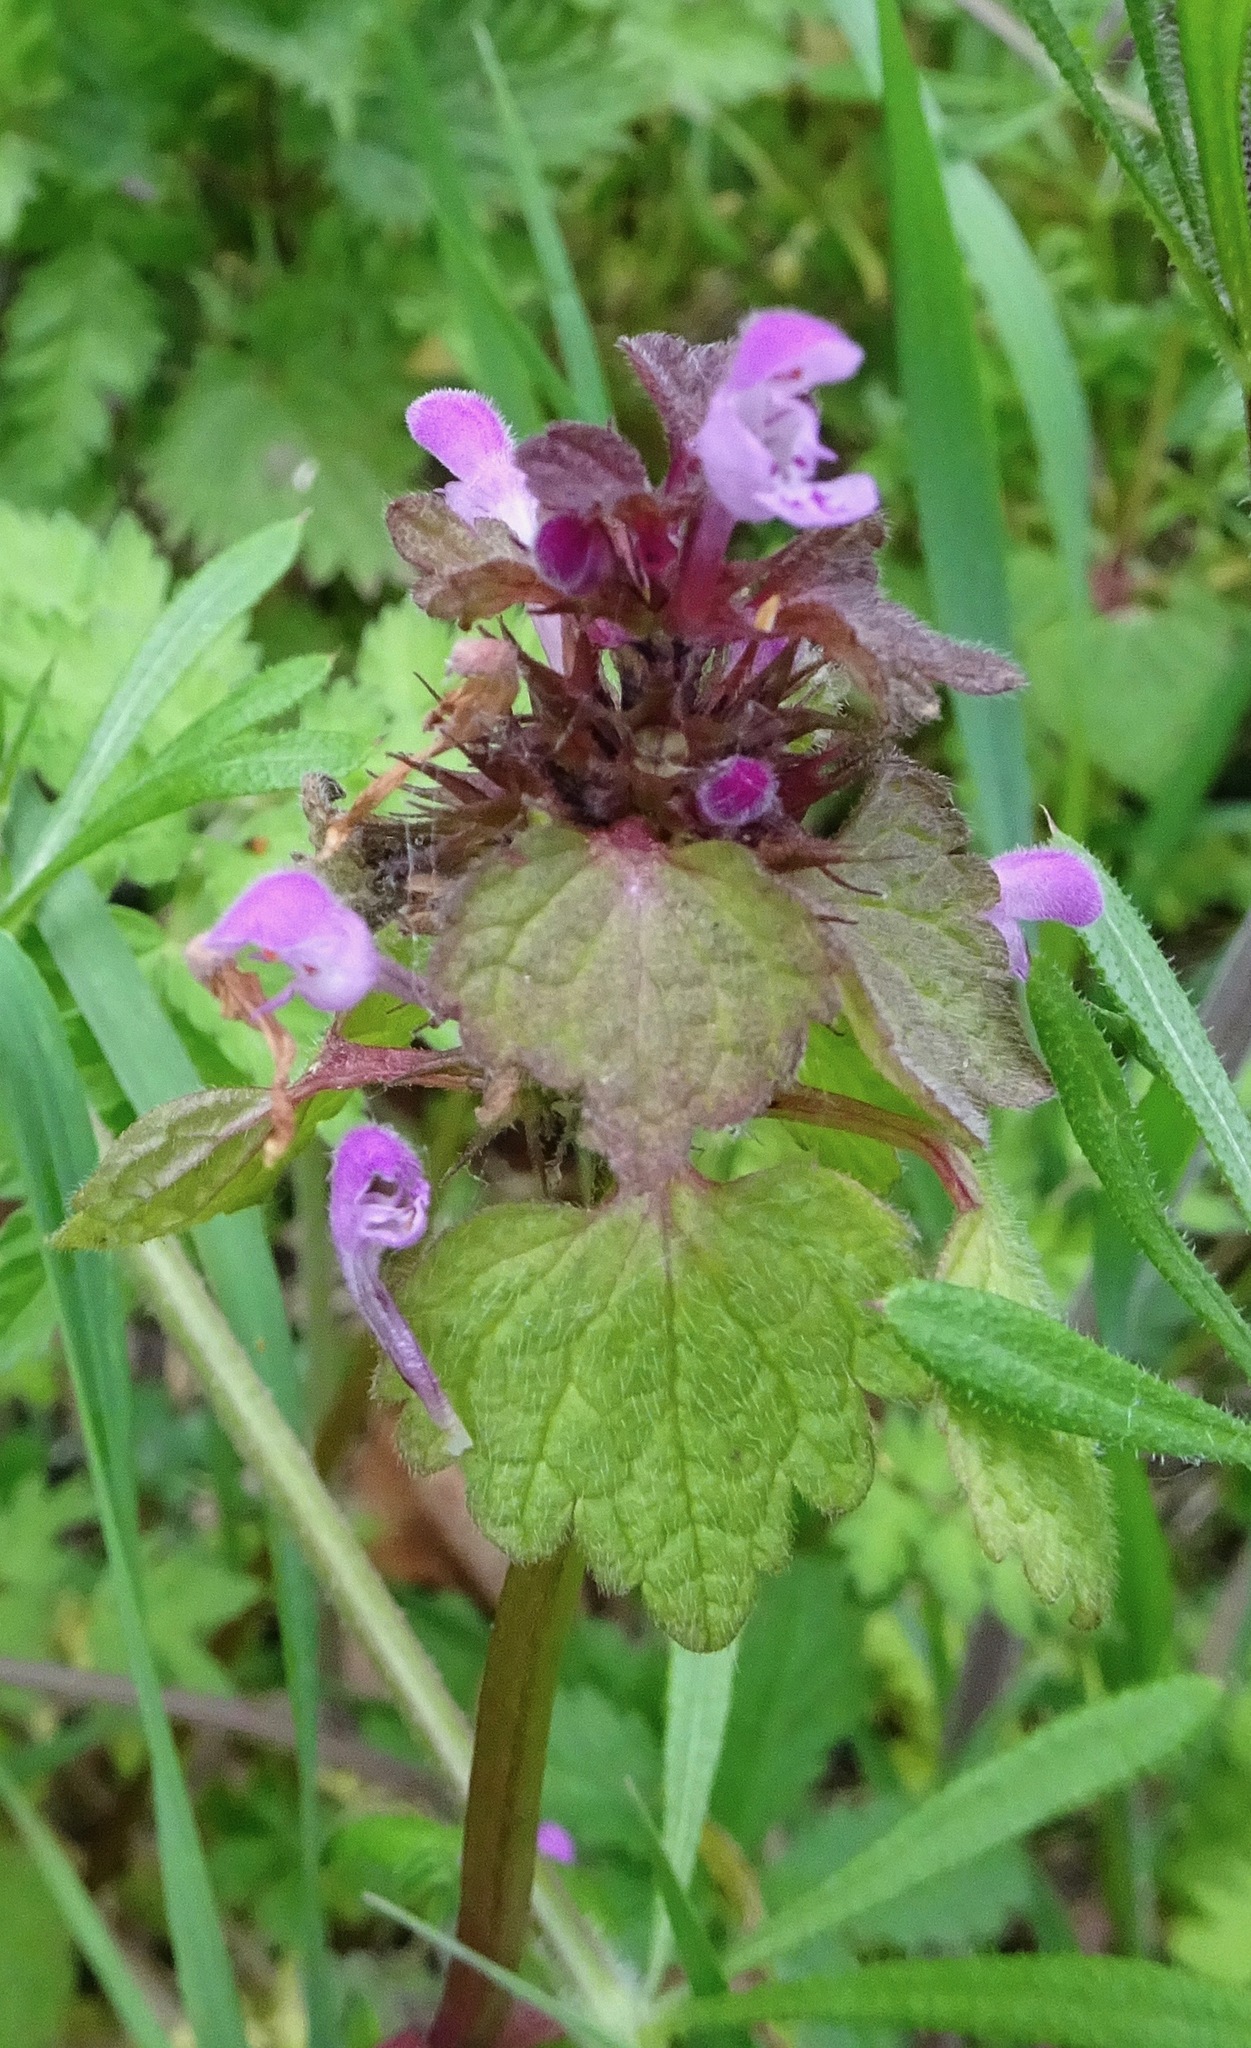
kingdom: Plantae
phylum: Tracheophyta
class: Magnoliopsida
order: Lamiales
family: Lamiaceae
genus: Lamium
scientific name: Lamium purpureum
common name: Red dead-nettle
